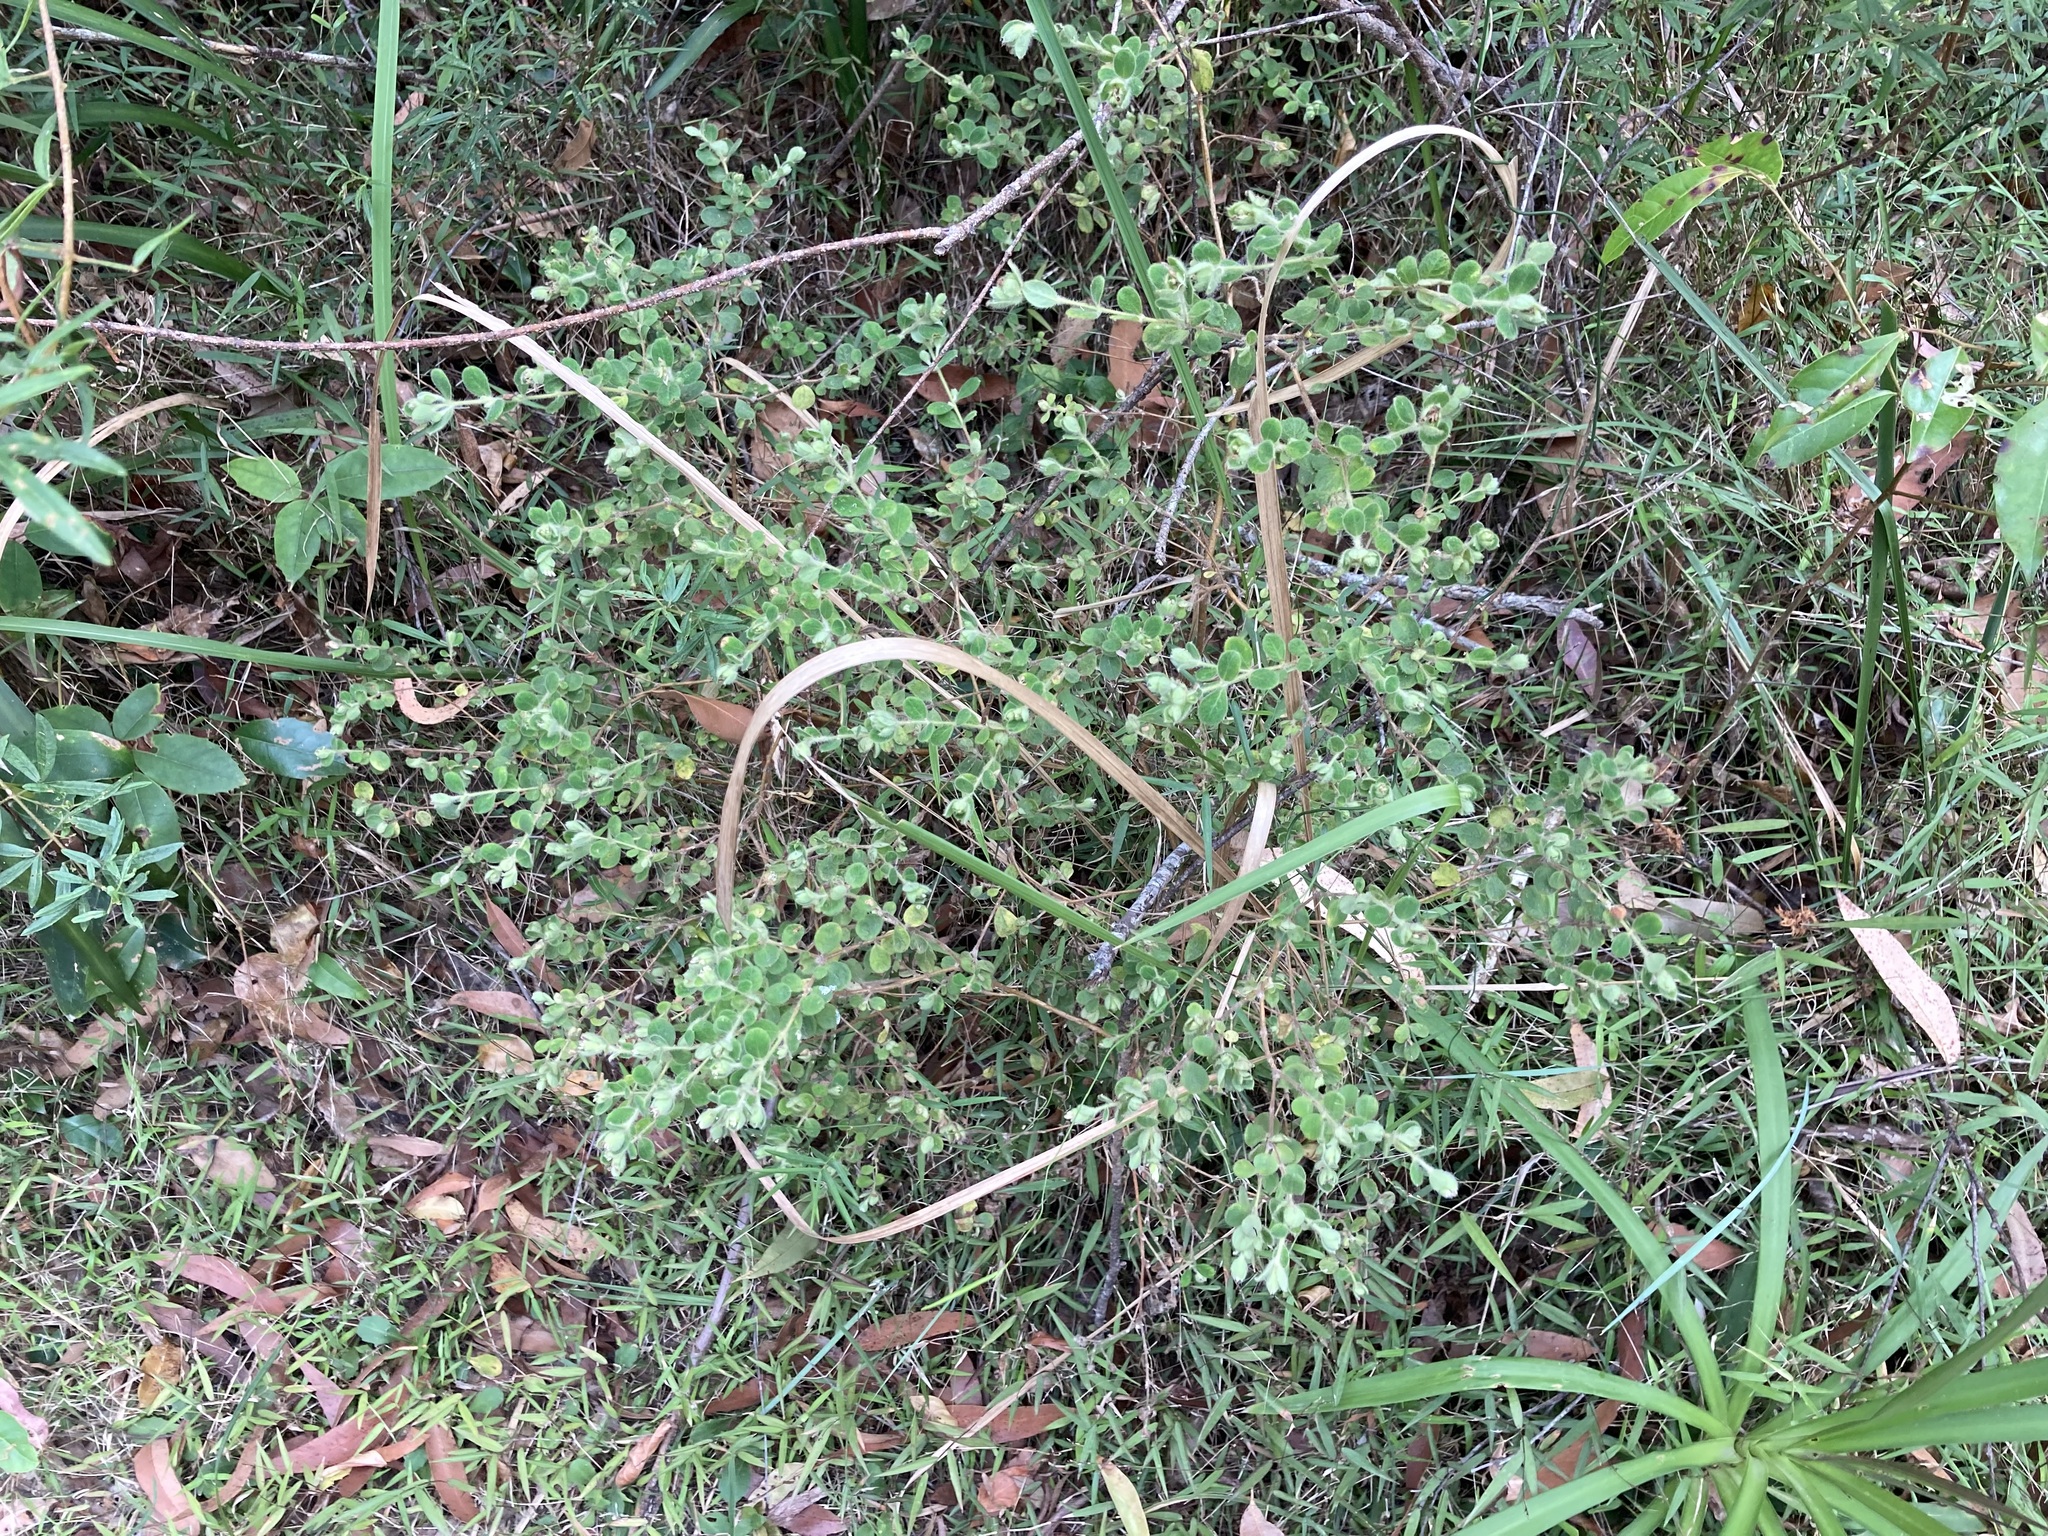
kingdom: Plantae
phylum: Tracheophyta
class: Magnoliopsida
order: Malvales
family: Thymelaeaceae
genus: Pimelea
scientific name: Pimelea altior
